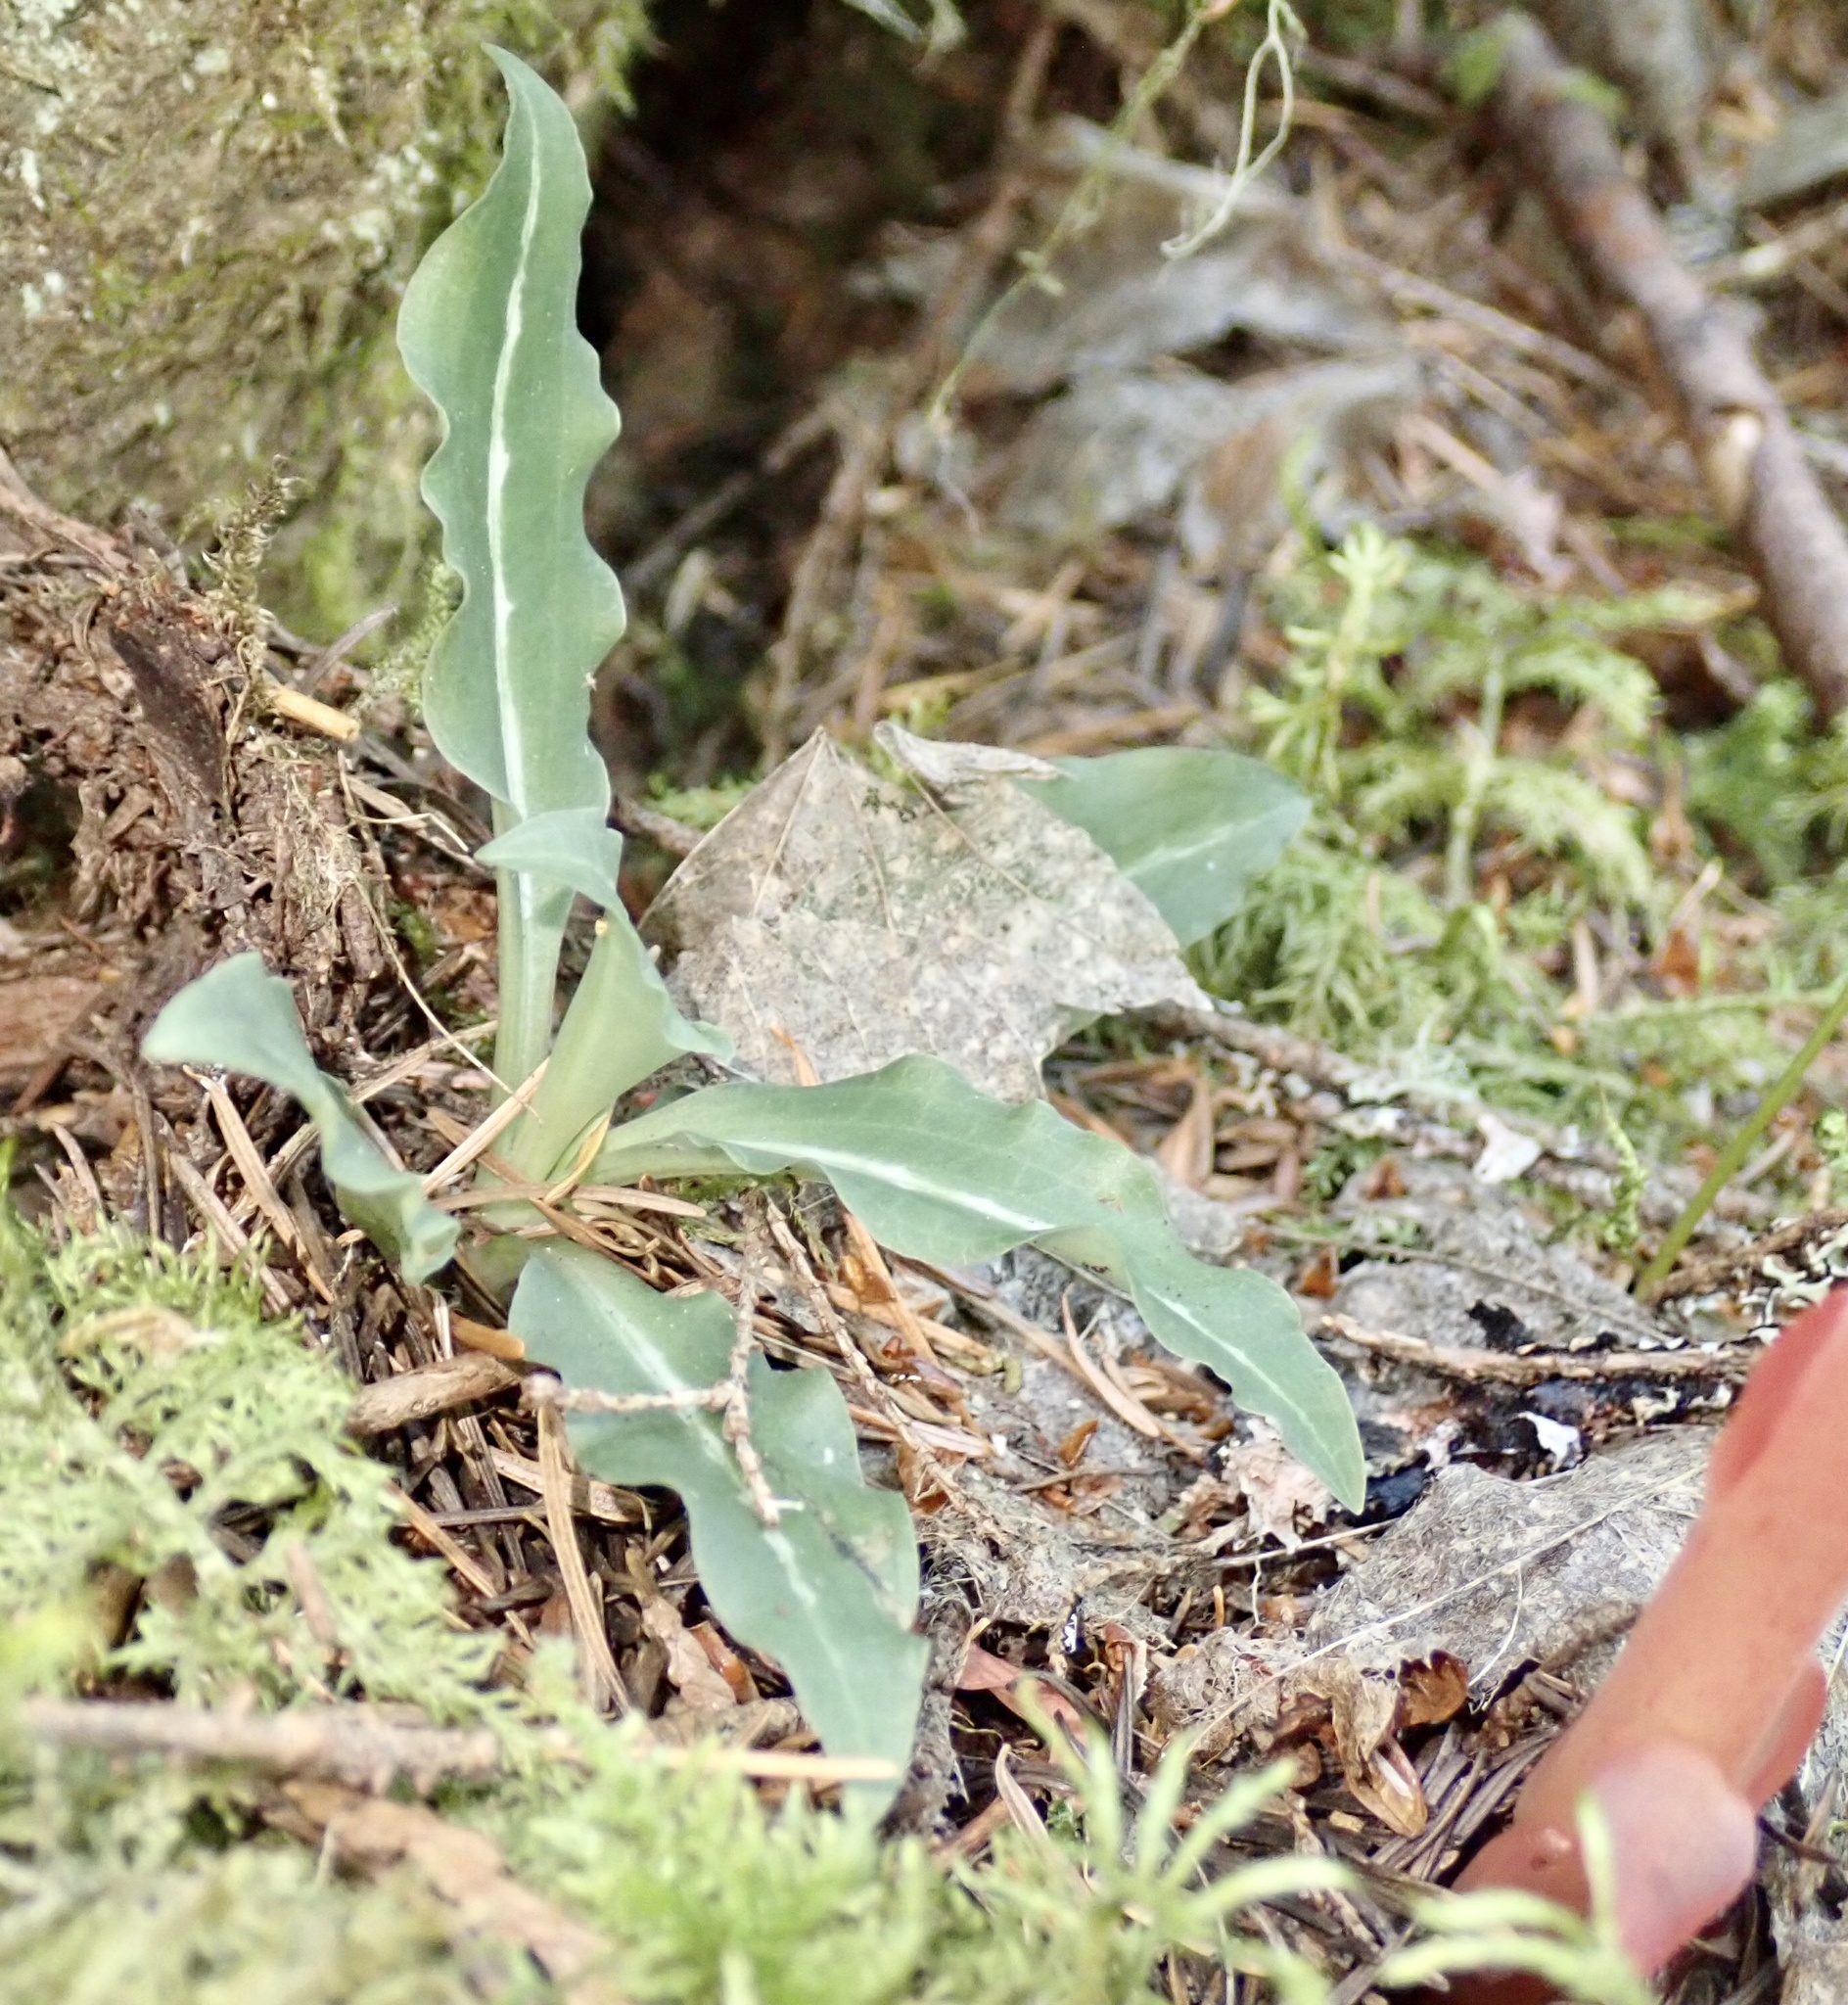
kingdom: Plantae
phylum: Tracheophyta
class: Liliopsida
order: Asparagales
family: Orchidaceae
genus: Goodyera
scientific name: Goodyera oblongifolia
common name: Giant rattlesnake-plantain
